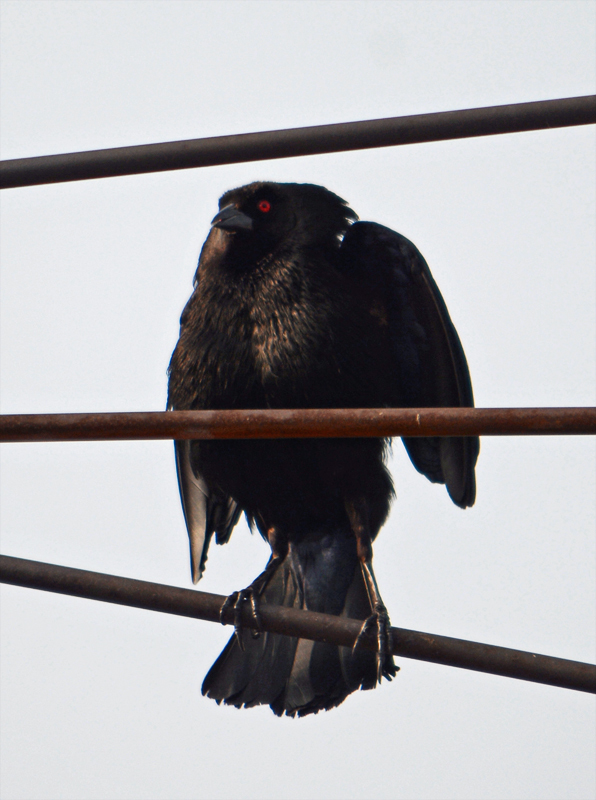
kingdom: Animalia
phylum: Chordata
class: Aves
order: Passeriformes
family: Icteridae
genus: Molothrus
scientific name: Molothrus aeneus
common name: Bronzed cowbird
